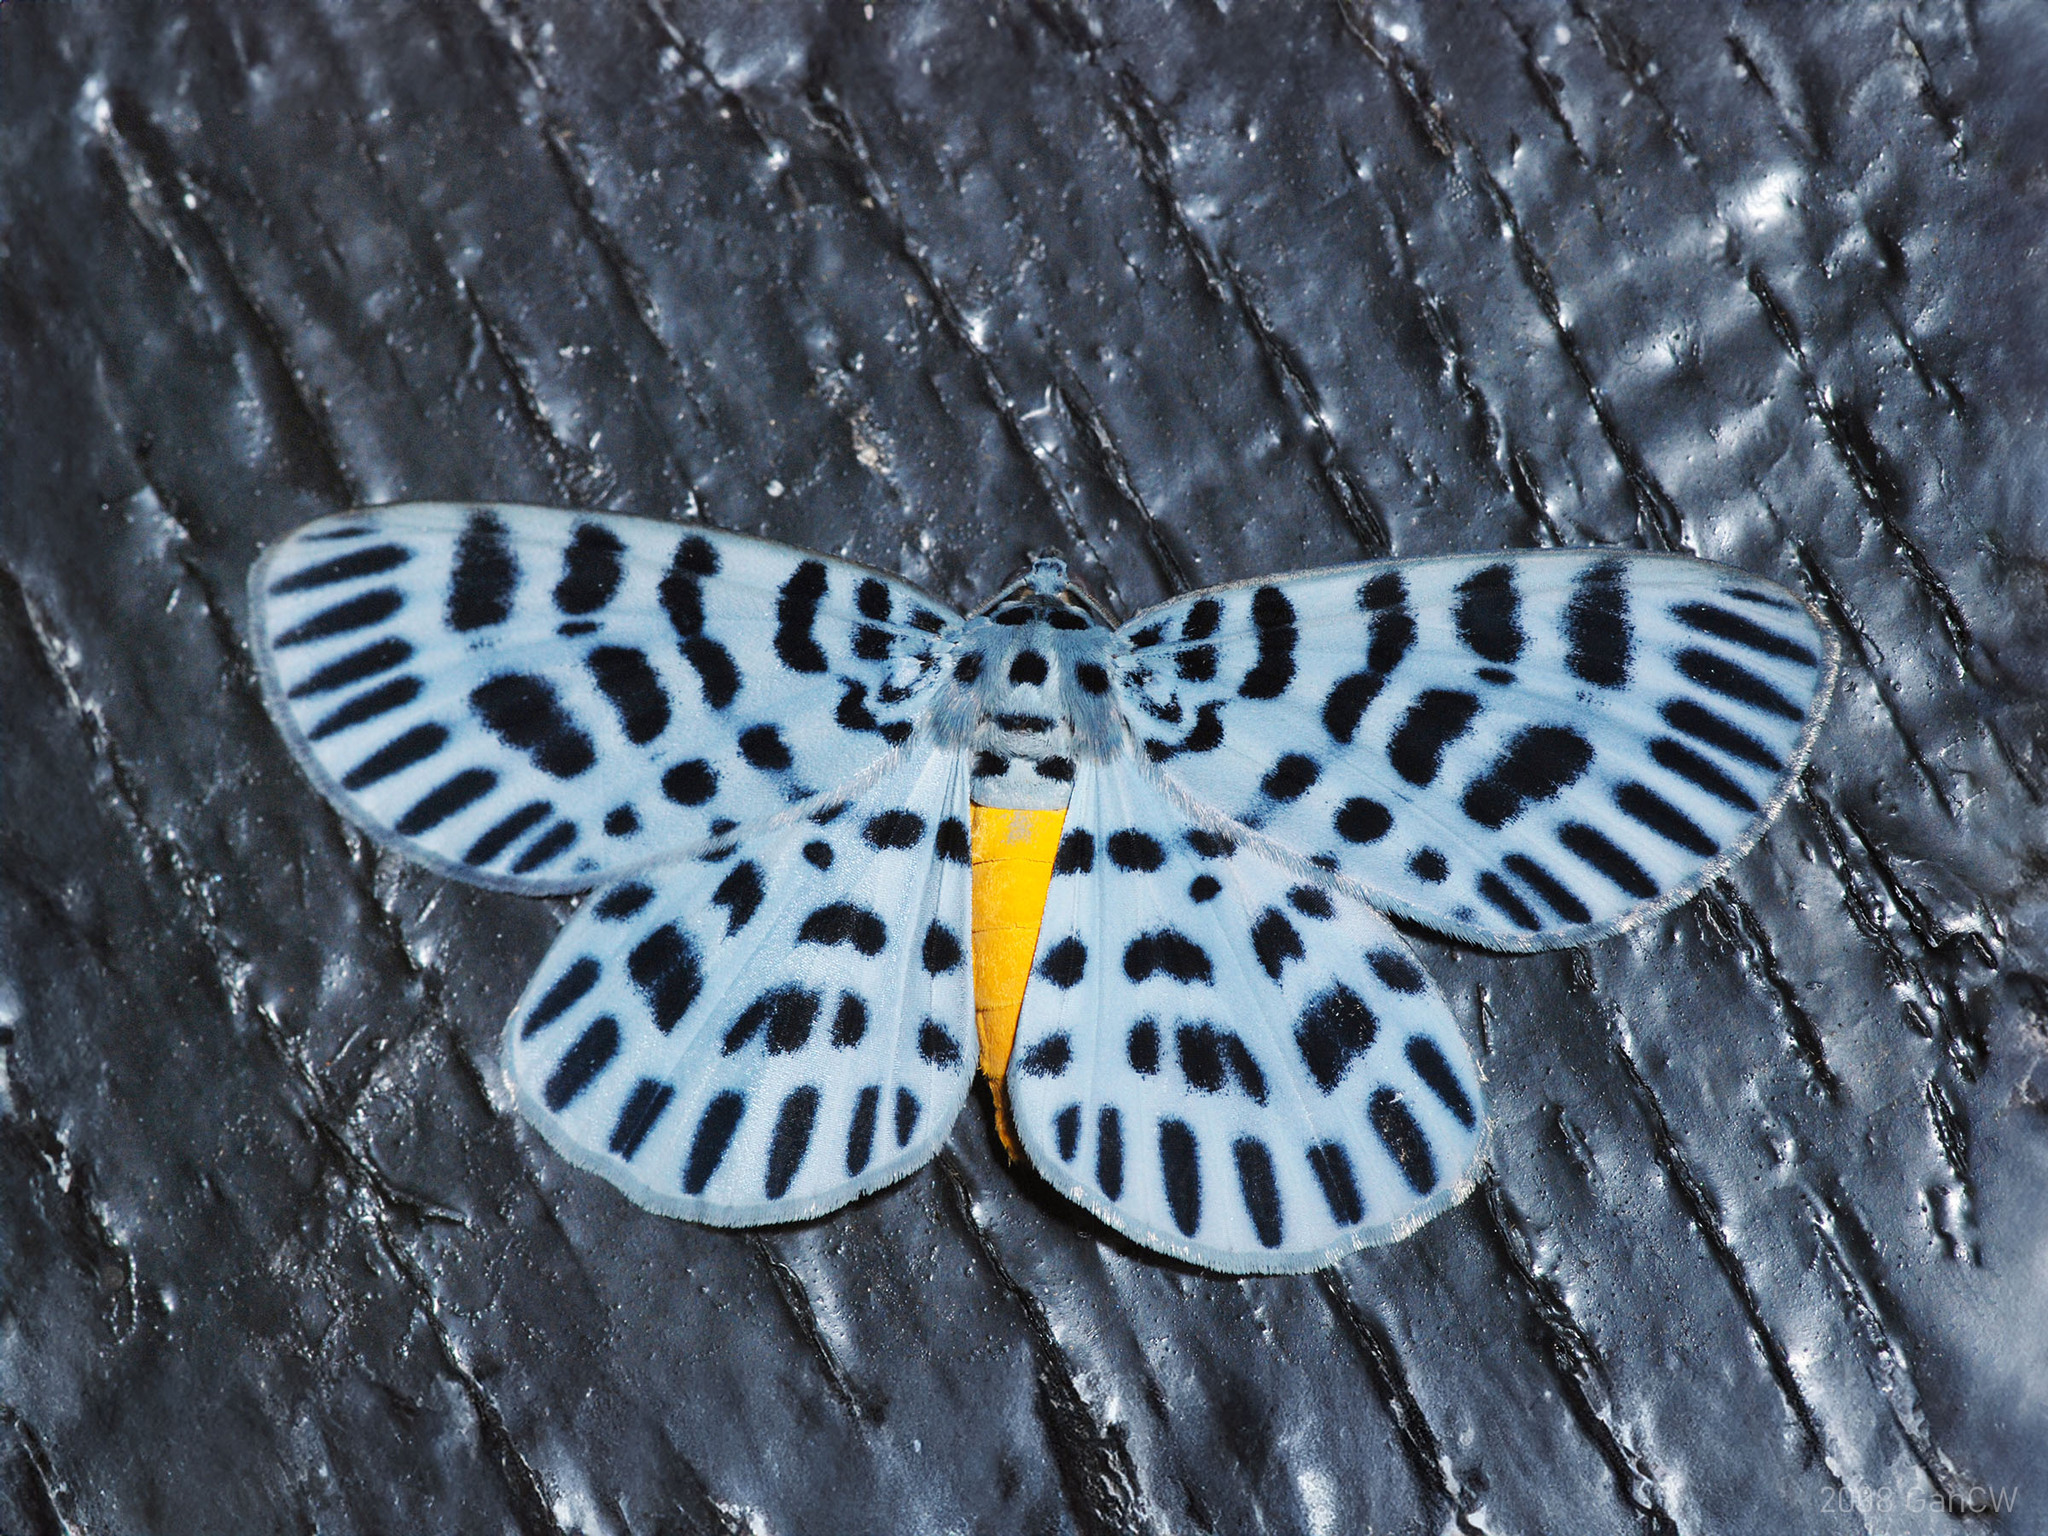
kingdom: Animalia
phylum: Arthropoda
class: Insecta
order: Lepidoptera
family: Geometridae
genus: Bracca
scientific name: Bracca maculosa
